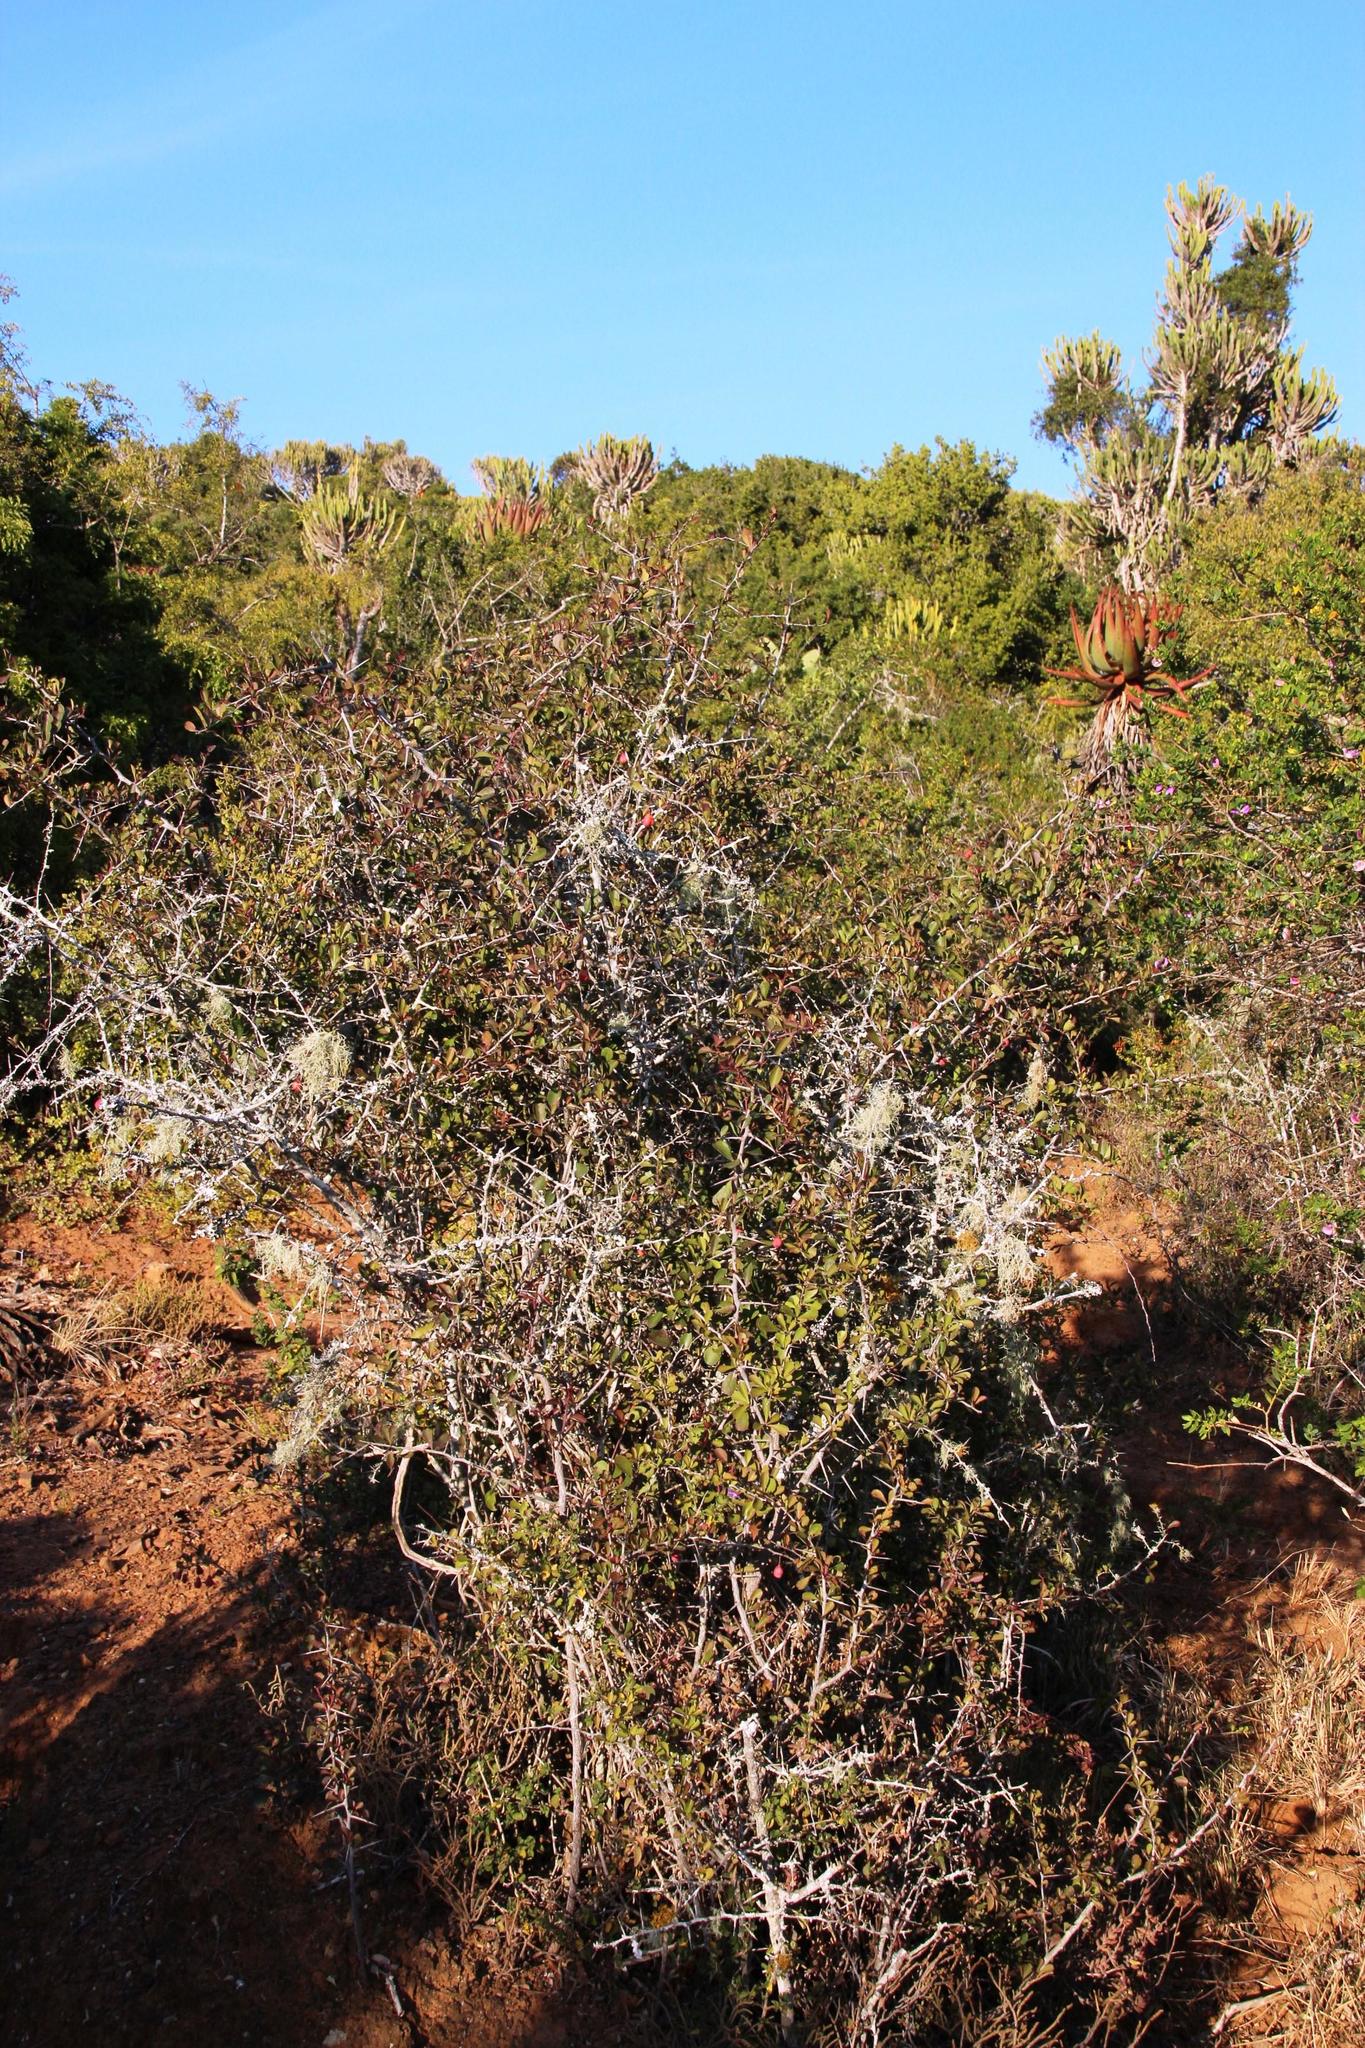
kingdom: Plantae
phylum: Tracheophyta
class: Magnoliopsida
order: Celastrales
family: Celastraceae
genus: Putterlickia
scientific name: Putterlickia pyracantha
